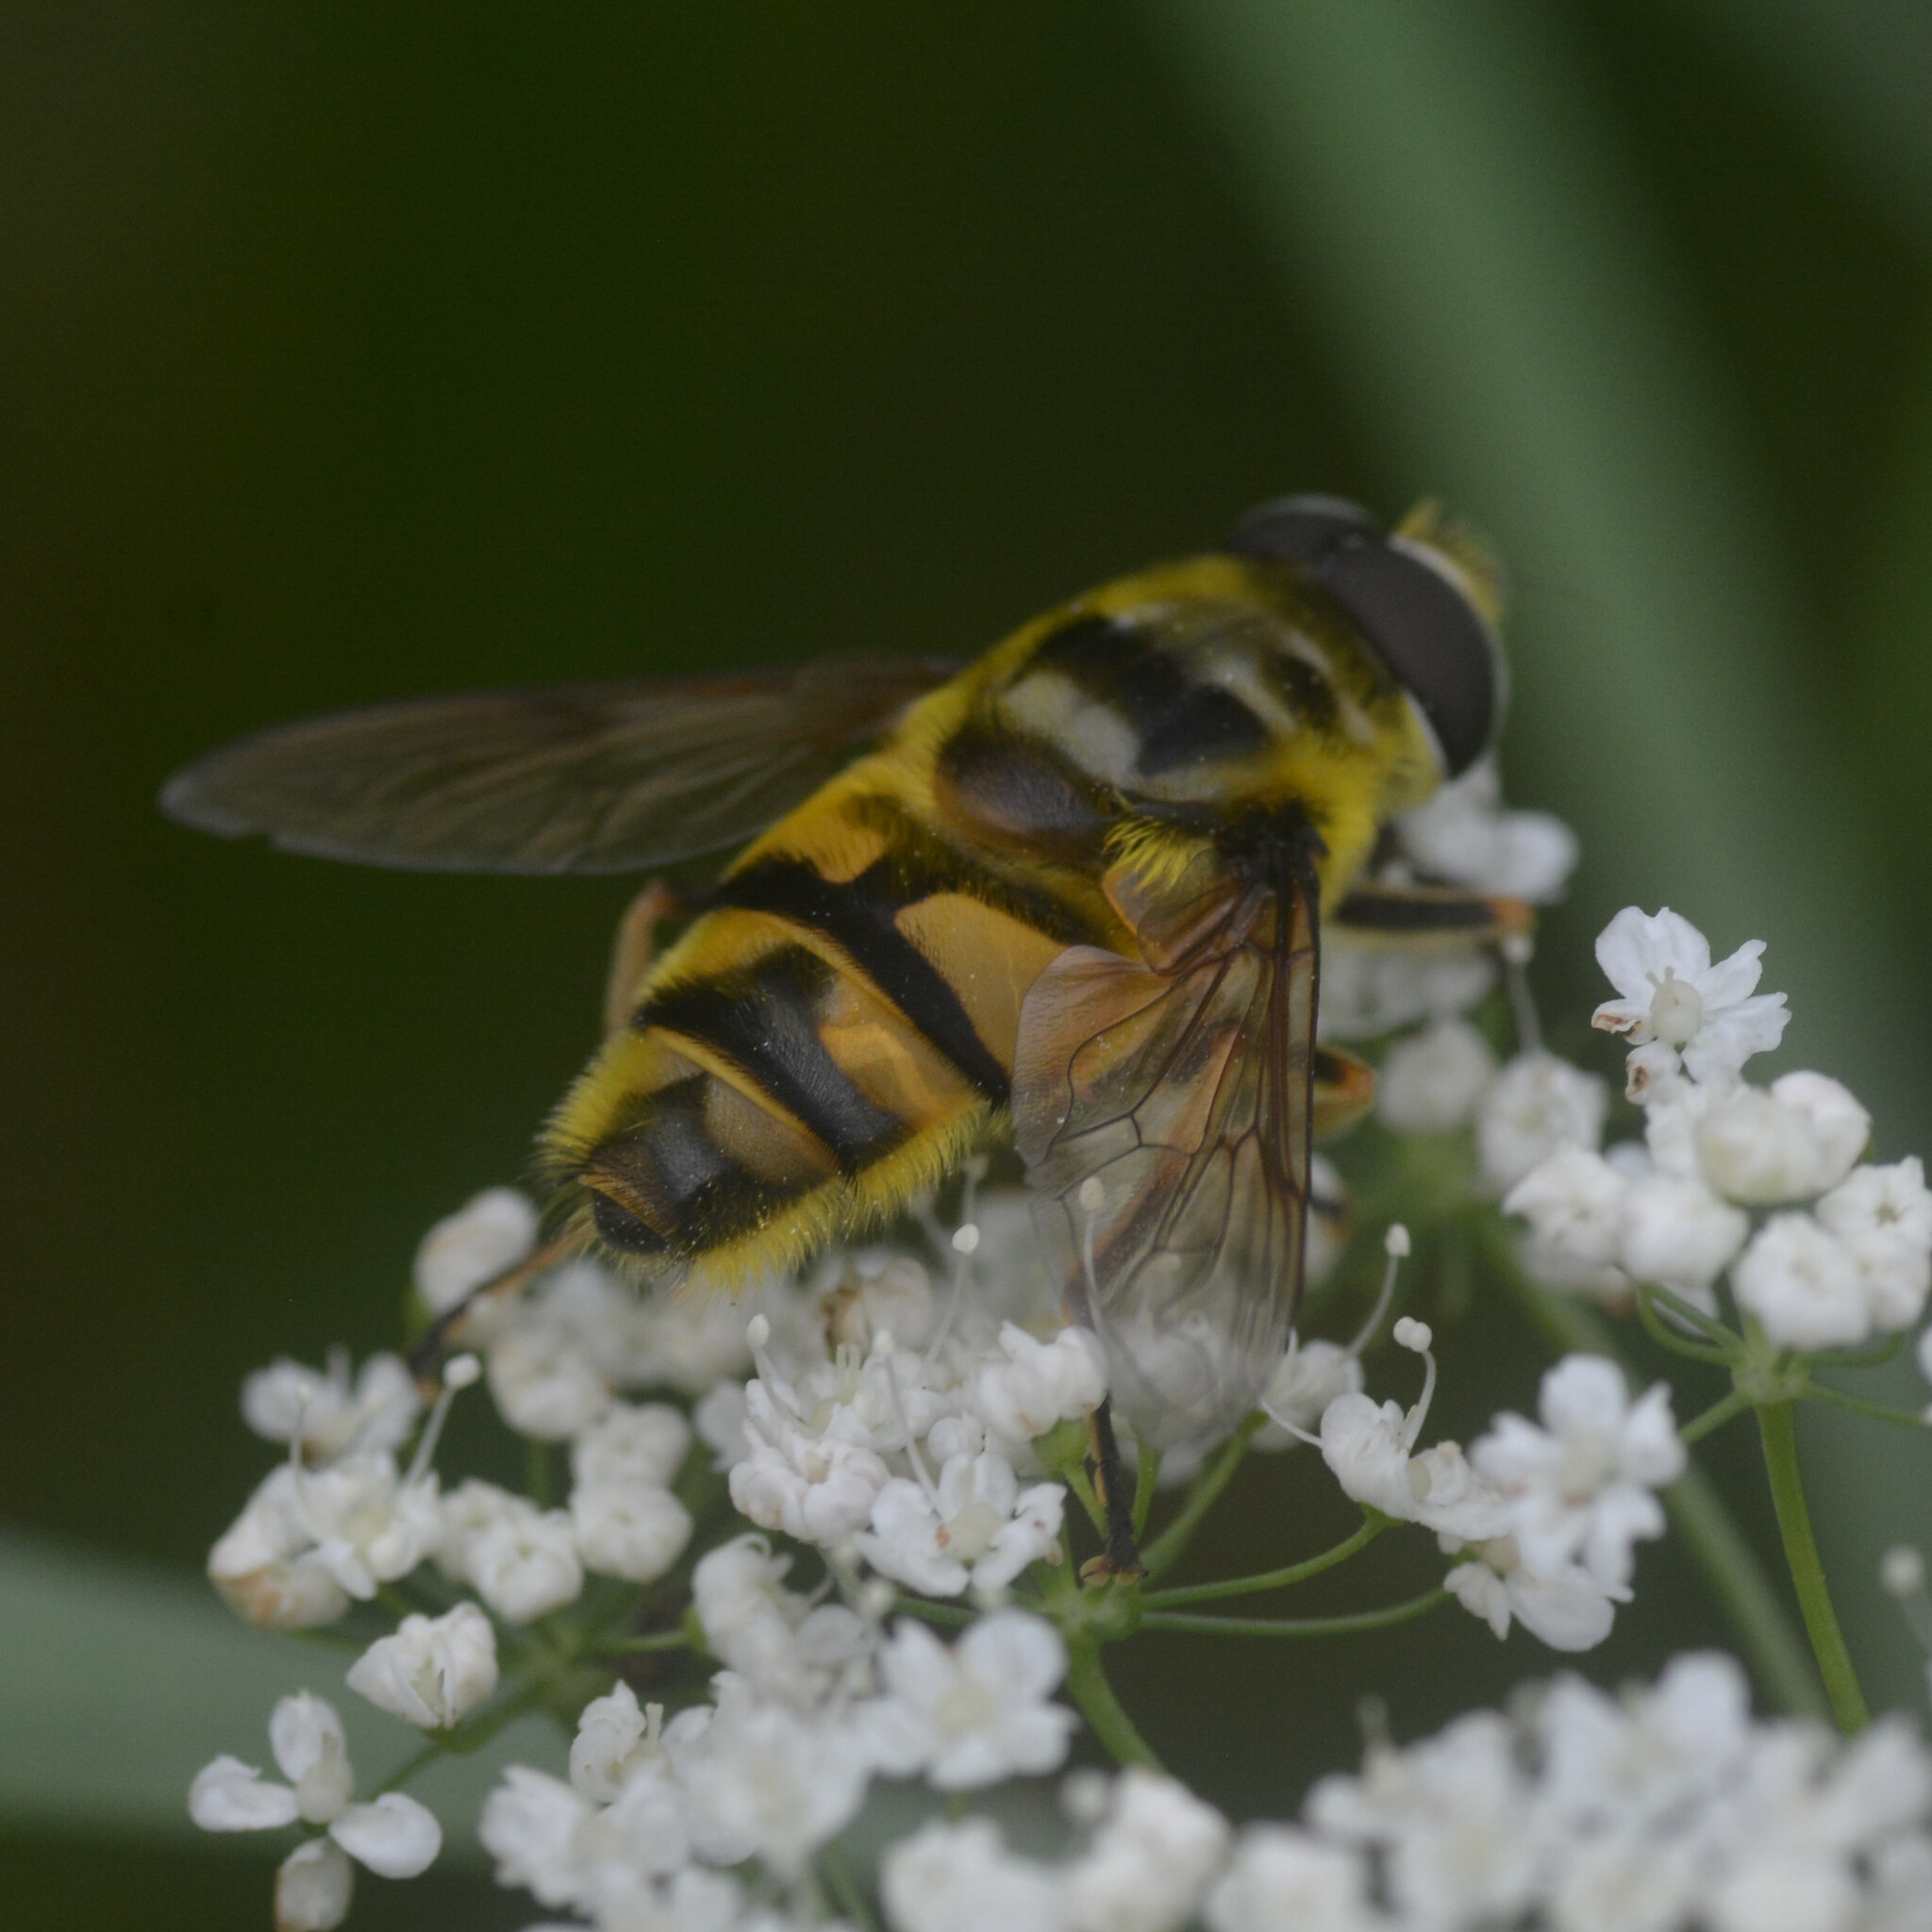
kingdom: Animalia
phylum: Arthropoda
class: Insecta
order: Diptera
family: Syrphidae
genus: Myathropa
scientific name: Myathropa florea
